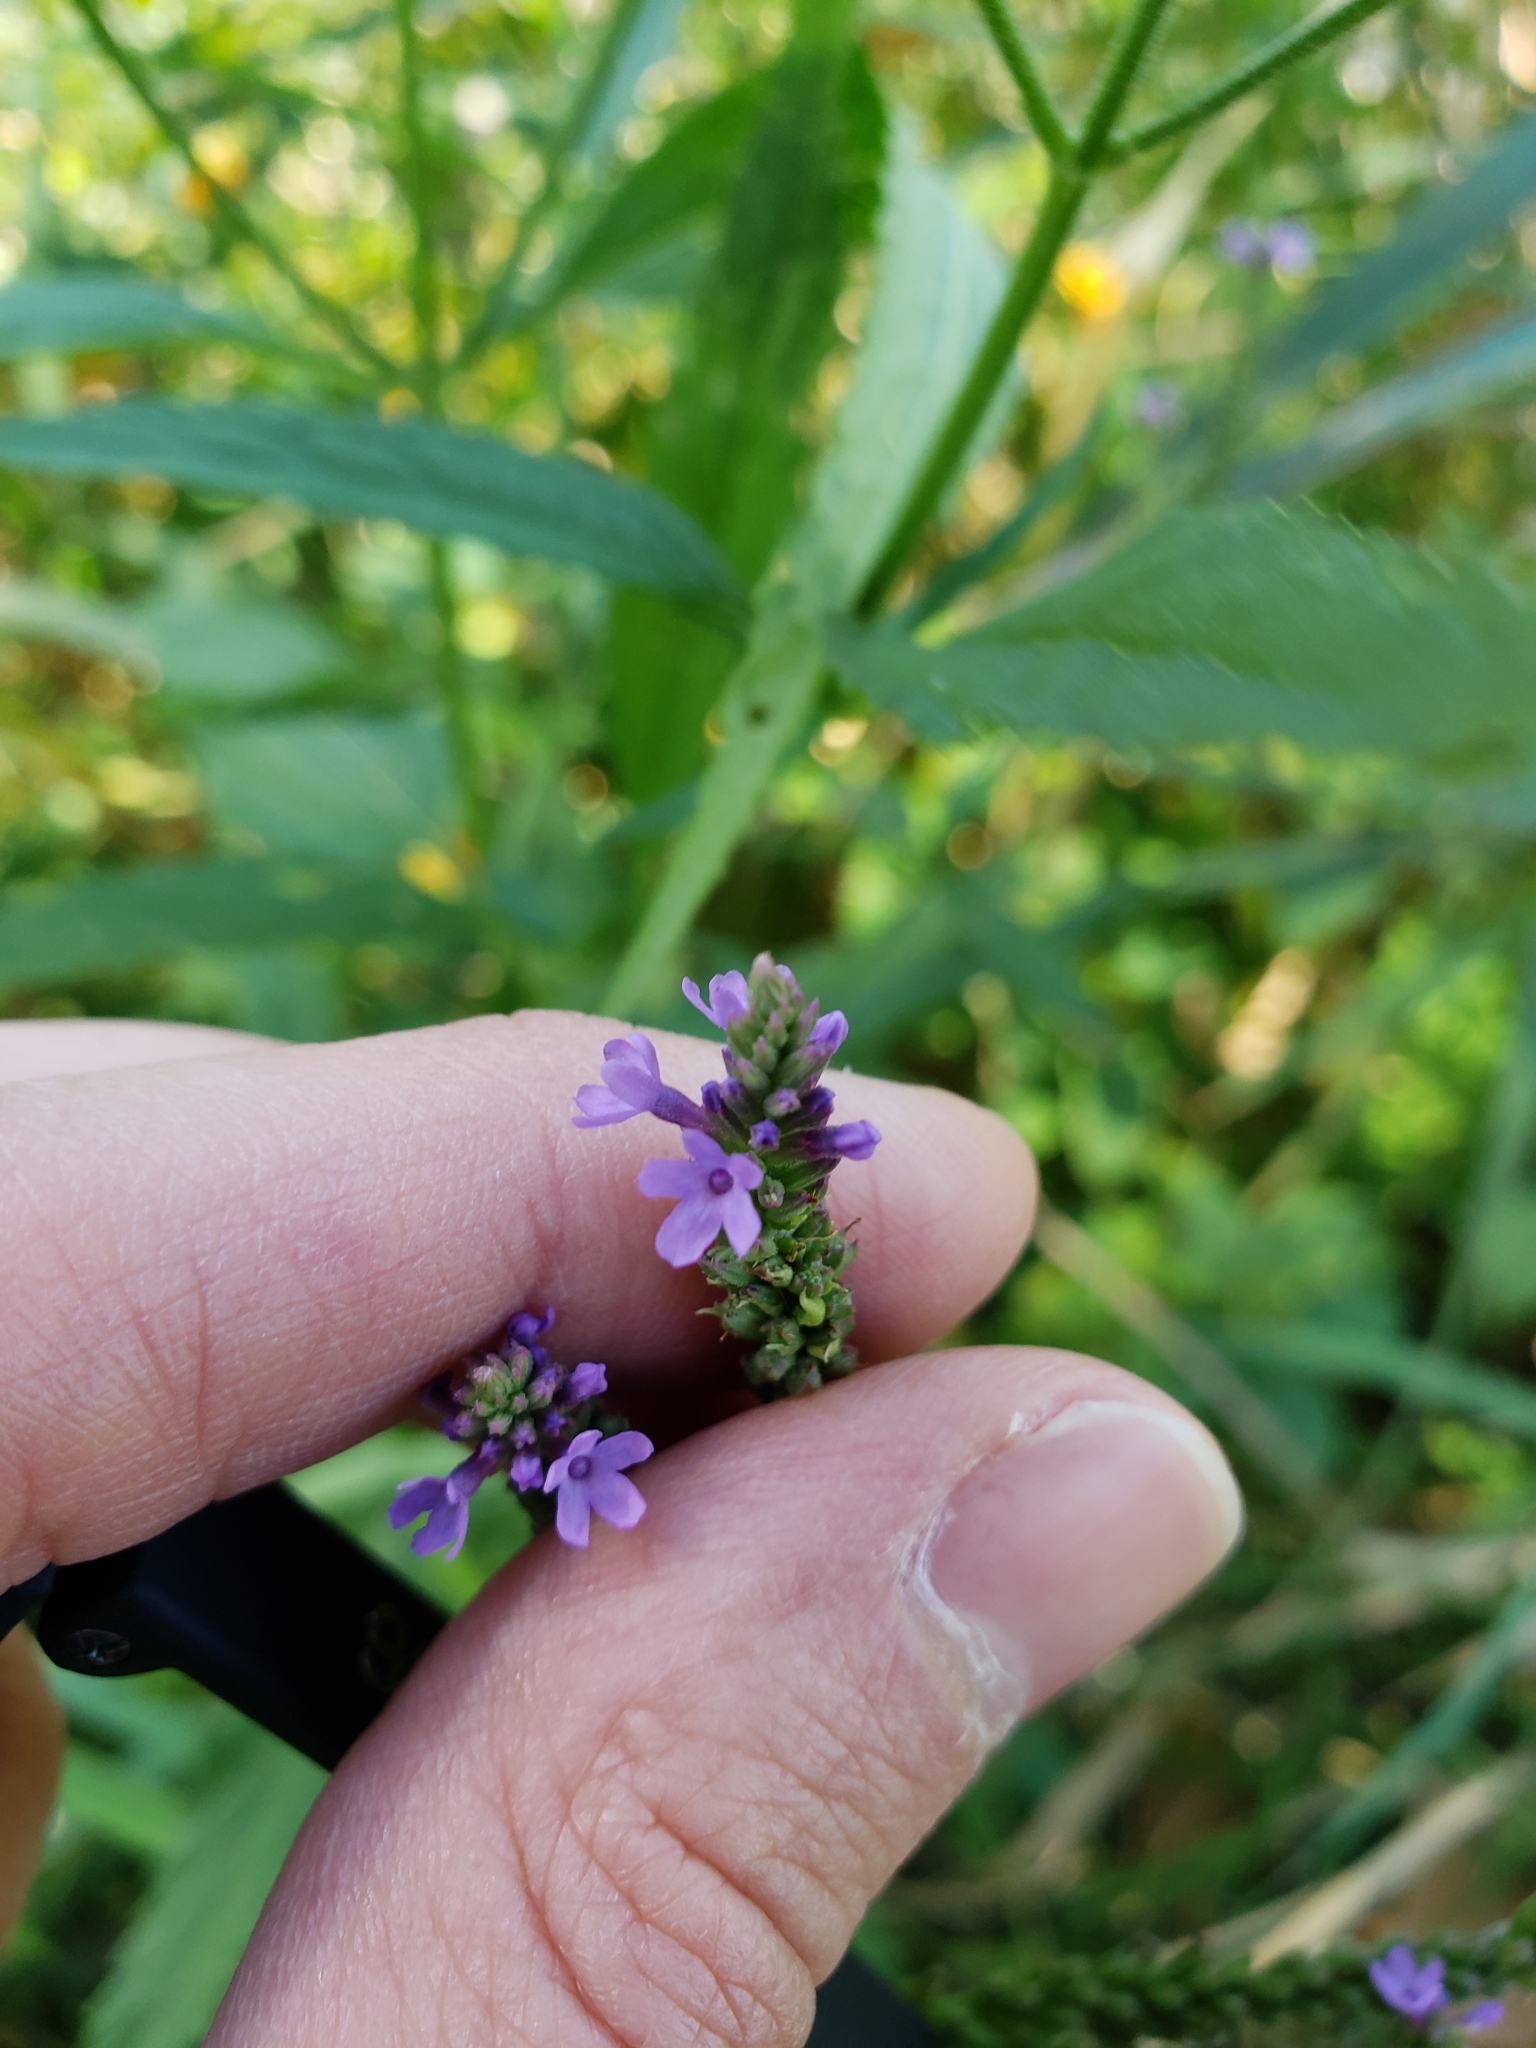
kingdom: Plantae
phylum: Tracheophyta
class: Magnoliopsida
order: Lamiales
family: Verbenaceae
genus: Verbena
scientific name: Verbena hastata
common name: American blue vervain
